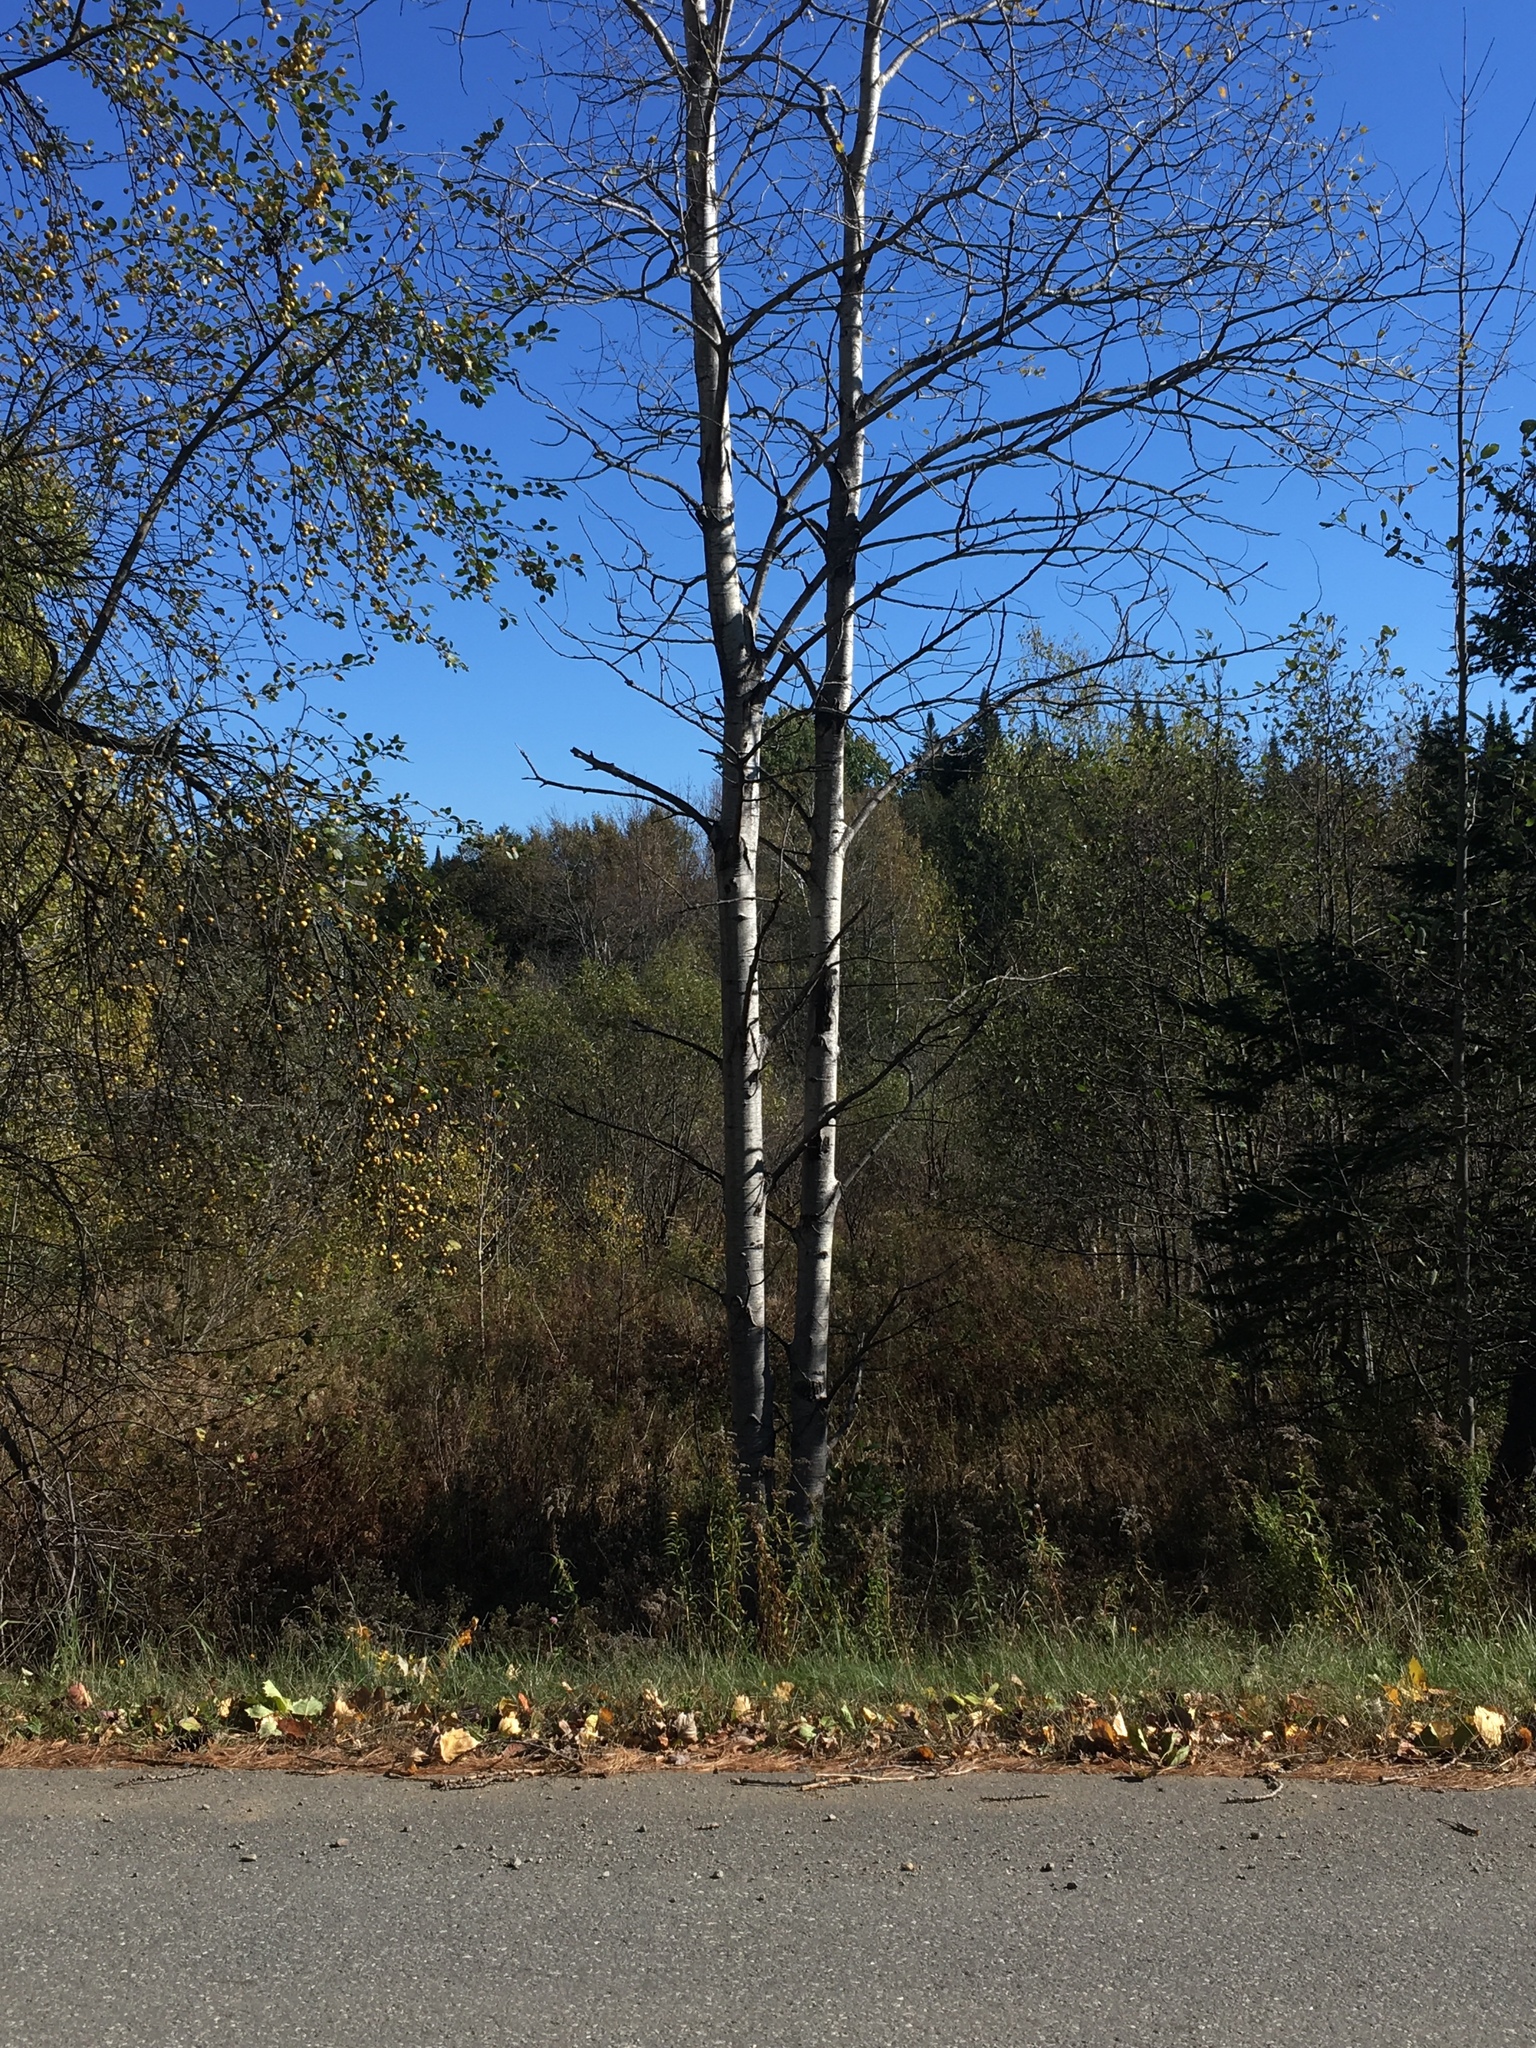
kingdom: Plantae
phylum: Tracheophyta
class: Magnoliopsida
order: Malpighiales
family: Salicaceae
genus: Populus
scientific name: Populus tremuloides
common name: Quaking aspen
